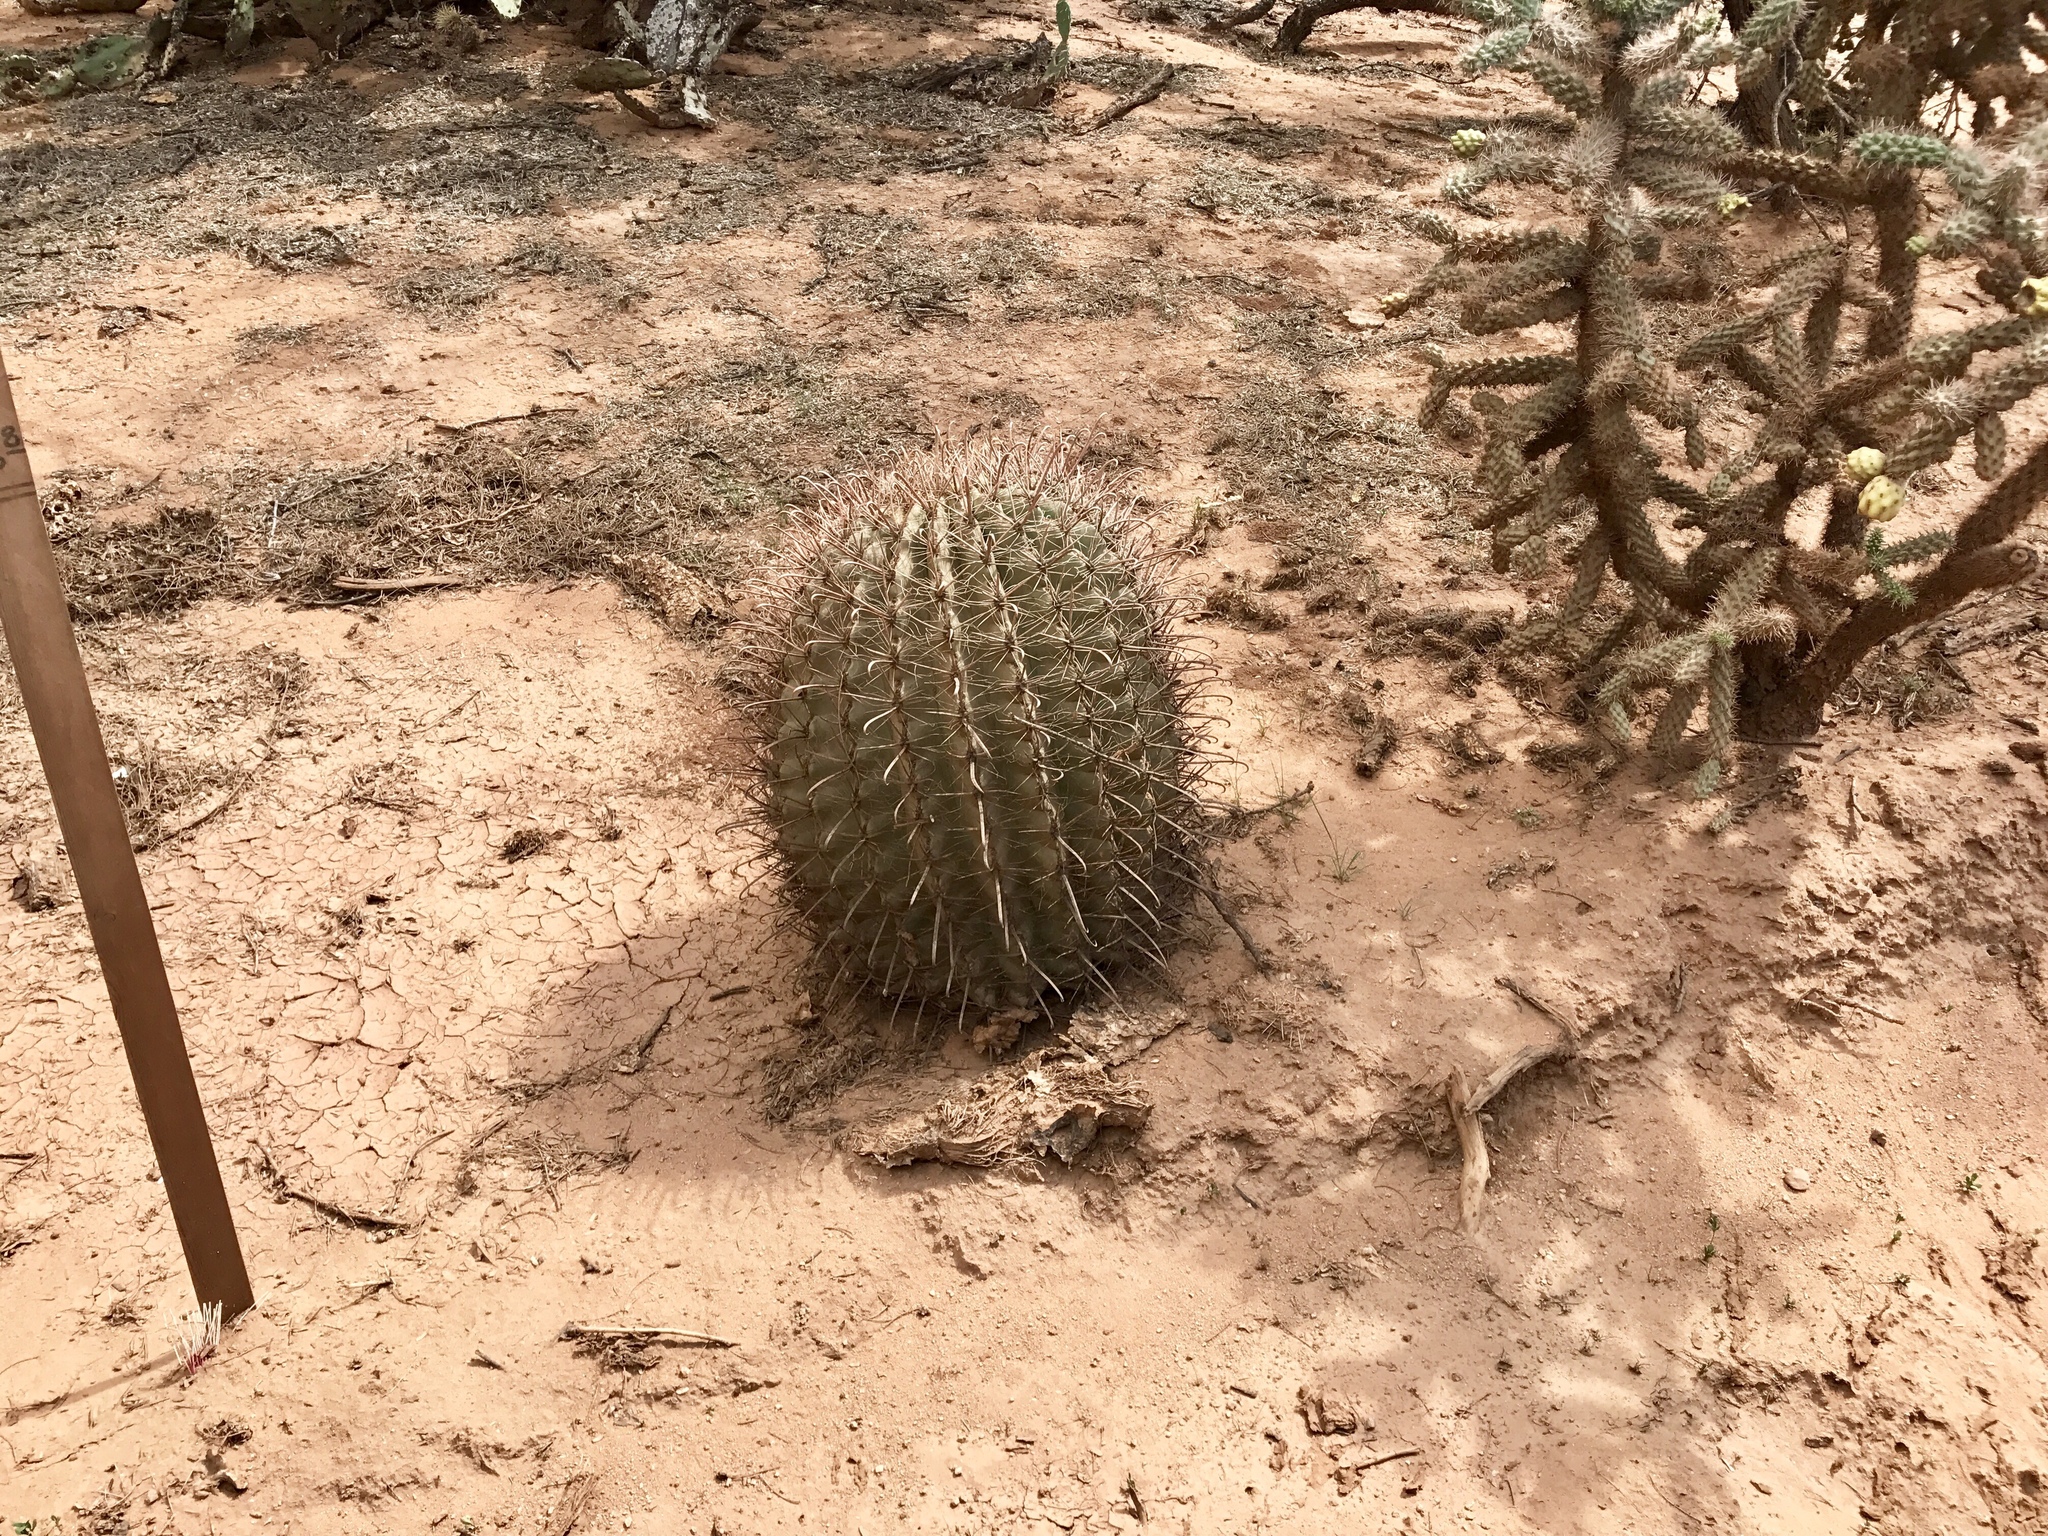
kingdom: Plantae
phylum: Tracheophyta
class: Magnoliopsida
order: Caryophyllales
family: Cactaceae
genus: Ferocactus
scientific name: Ferocactus wislizeni
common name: Candy barrel cactus
